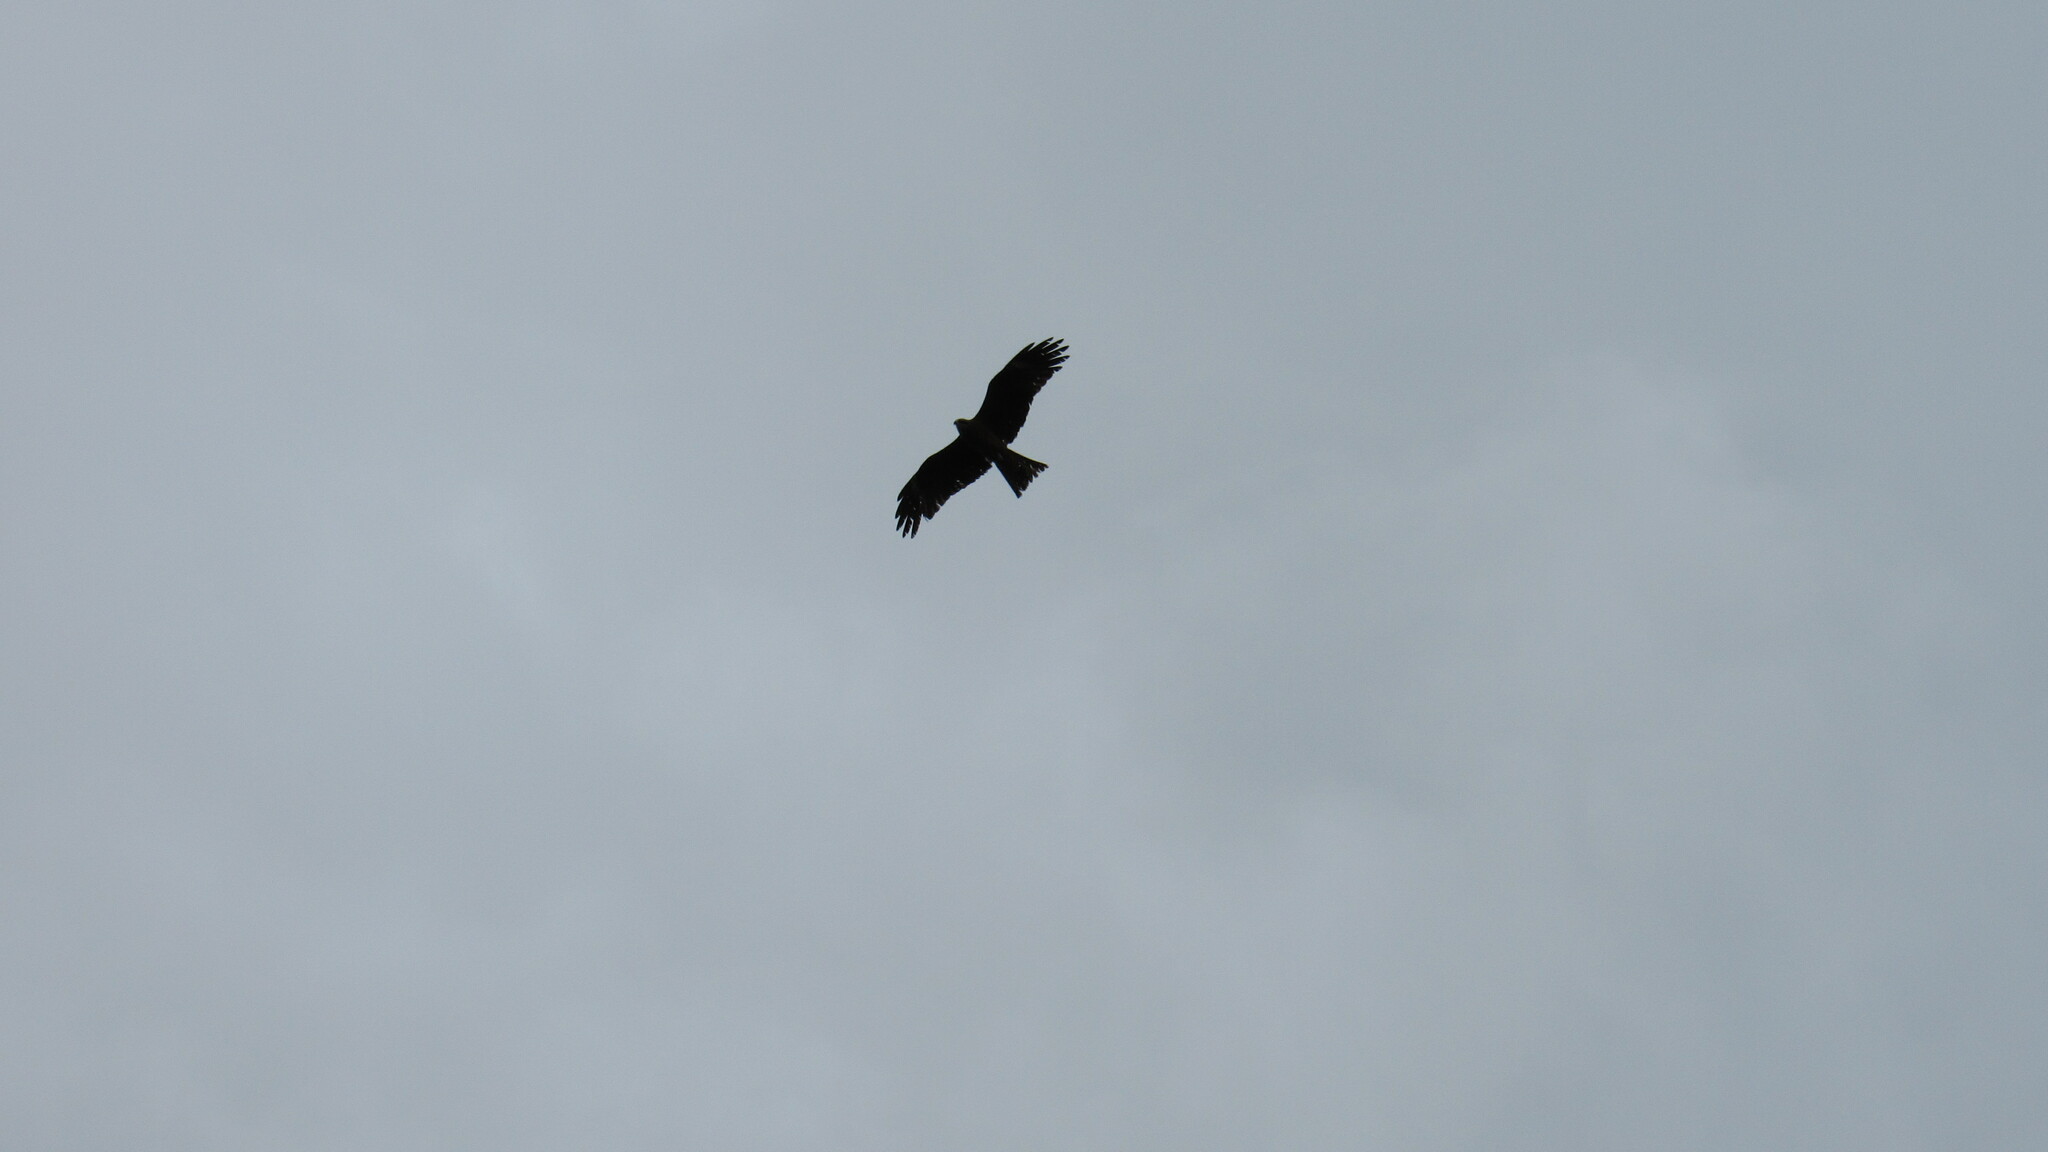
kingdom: Animalia
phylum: Chordata
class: Aves
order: Accipitriformes
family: Accipitridae
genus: Milvus
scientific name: Milvus migrans
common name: Black kite
